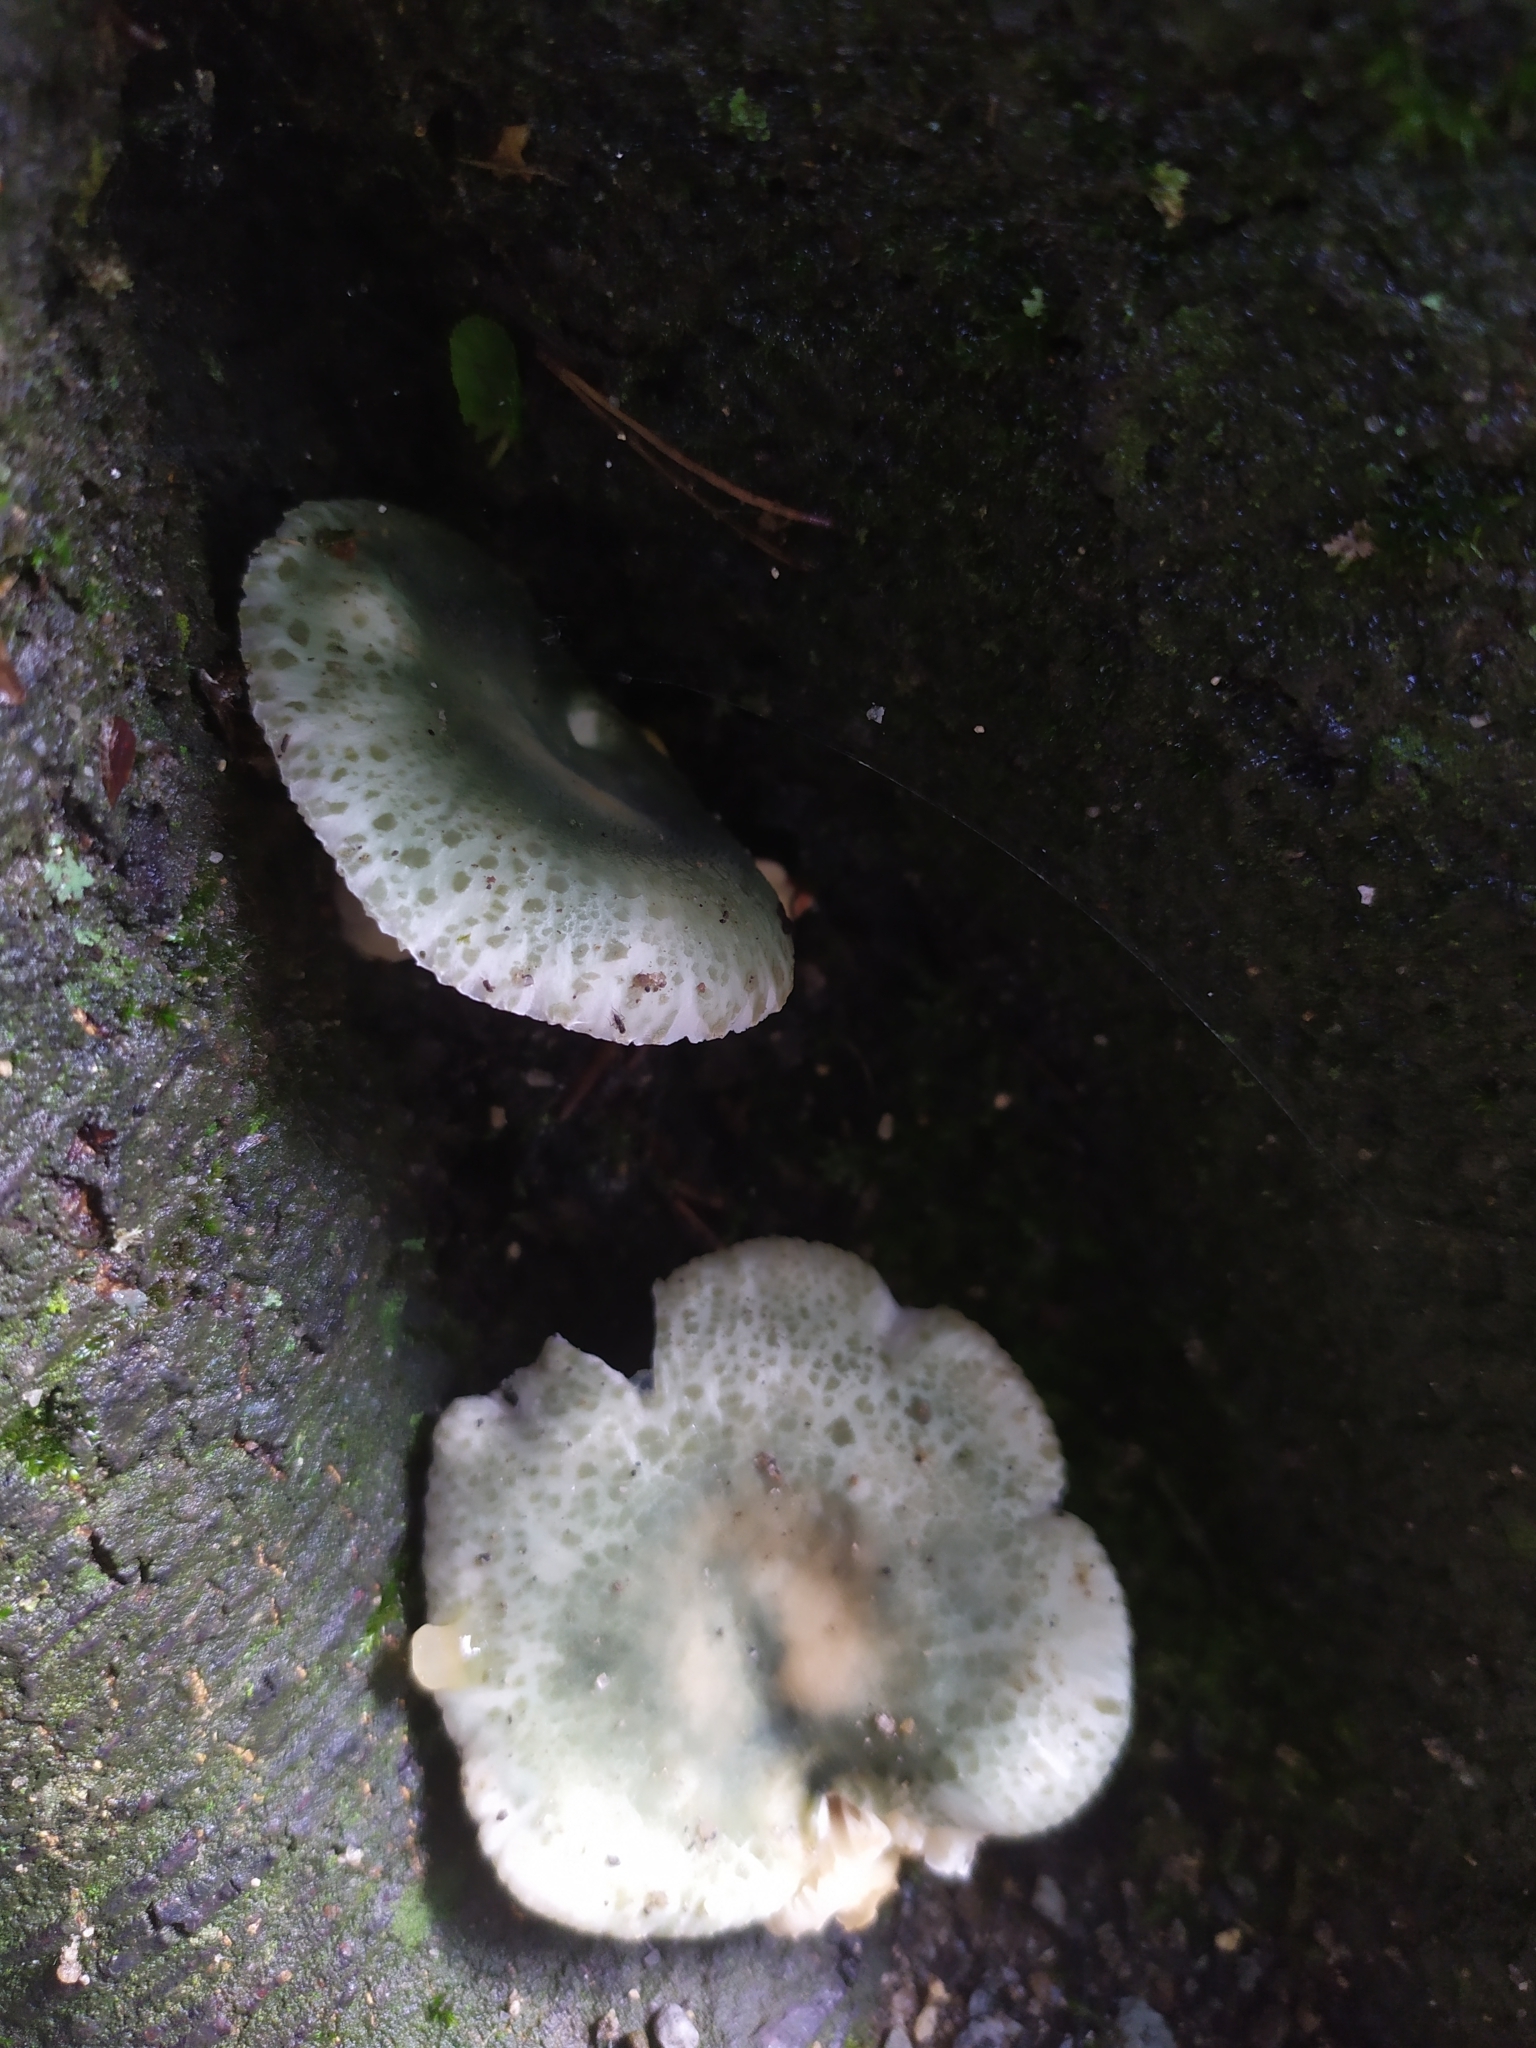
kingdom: Fungi
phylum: Basidiomycota
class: Agaricomycetes
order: Russulales
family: Russulaceae
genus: Russula
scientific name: Russula virescens
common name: Greencracked brittlegill
